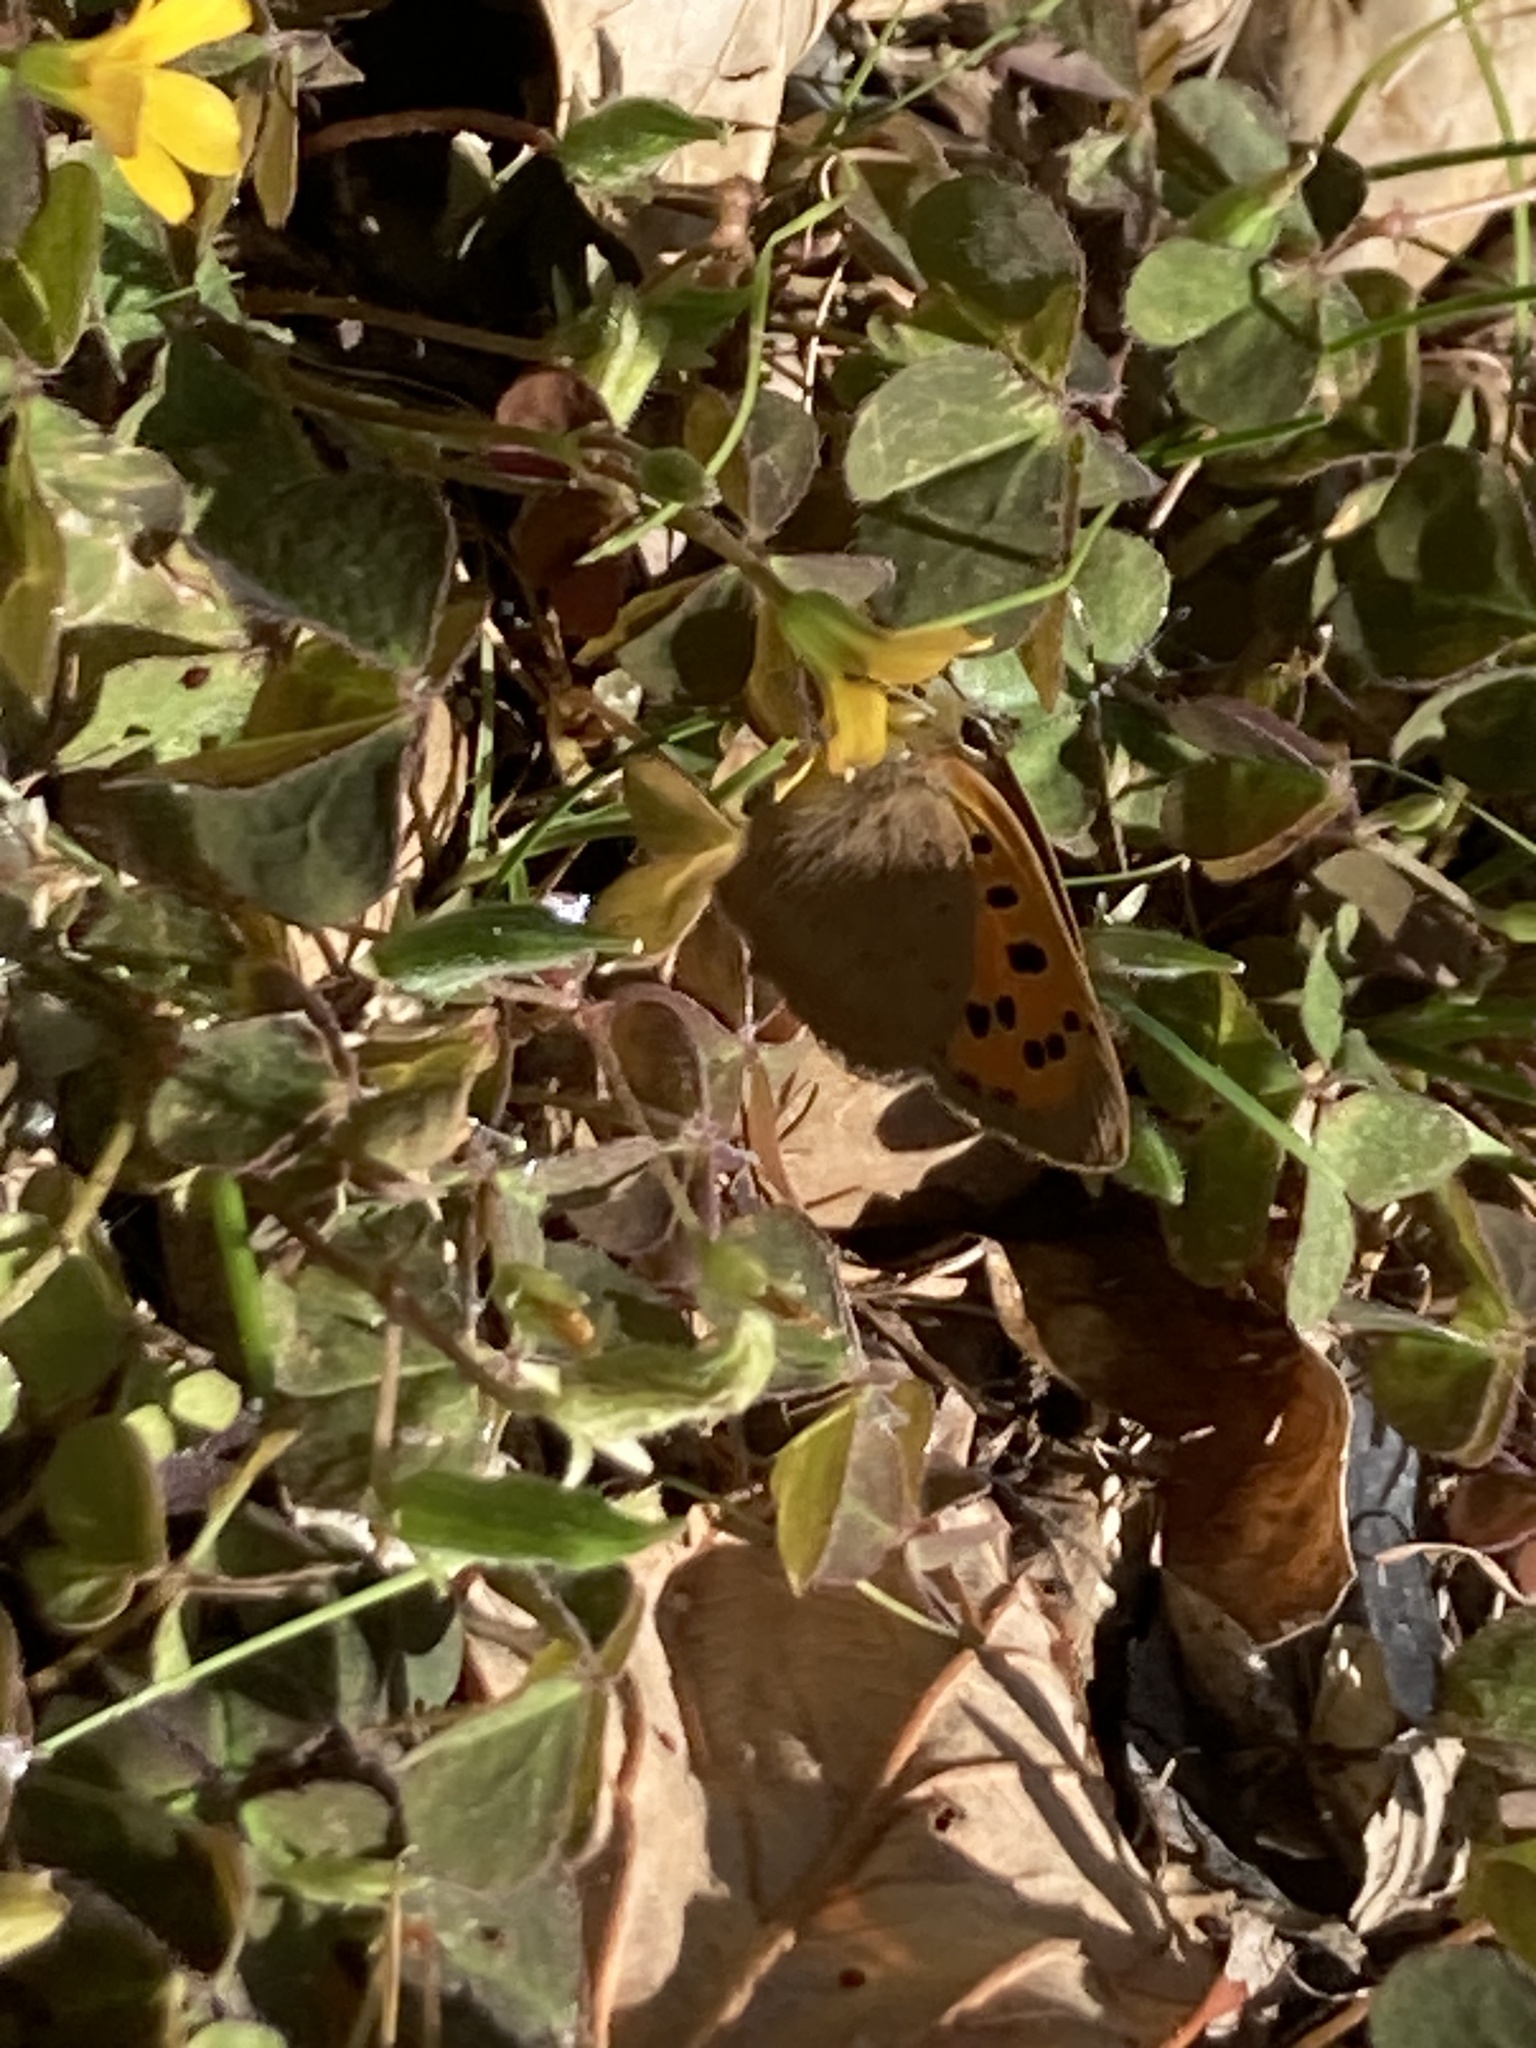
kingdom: Animalia
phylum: Arthropoda
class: Insecta
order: Lepidoptera
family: Lycaenidae
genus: Lycaena
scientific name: Lycaena phlaeas
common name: Small copper
